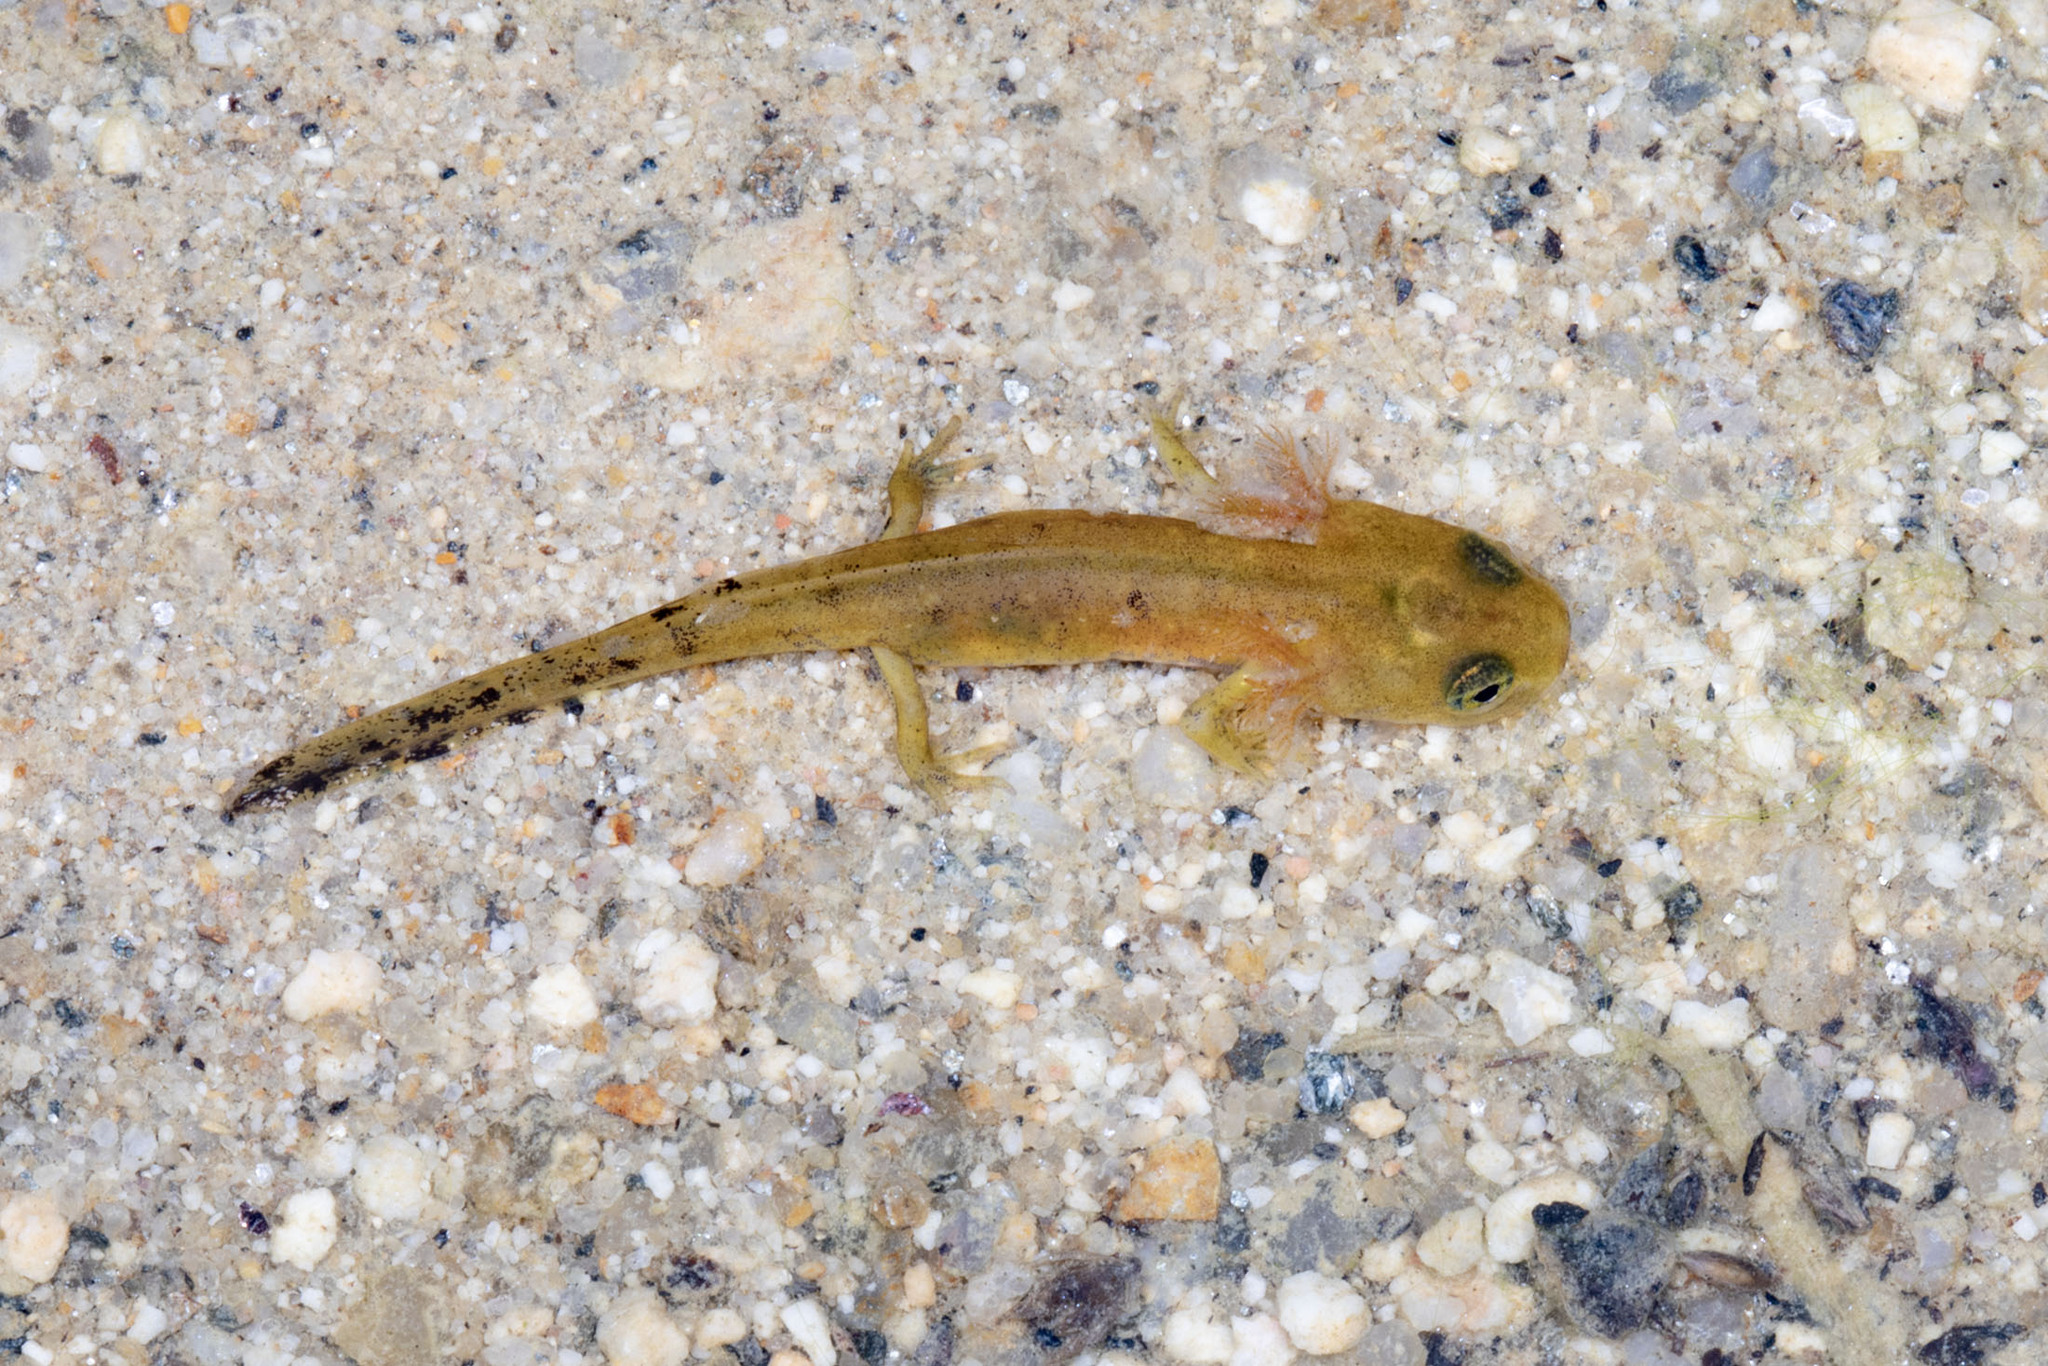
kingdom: Animalia
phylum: Chordata
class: Amphibia
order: Caudata
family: Salamandridae
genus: Salamandra
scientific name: Salamandra salamandra
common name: Fire salamander
